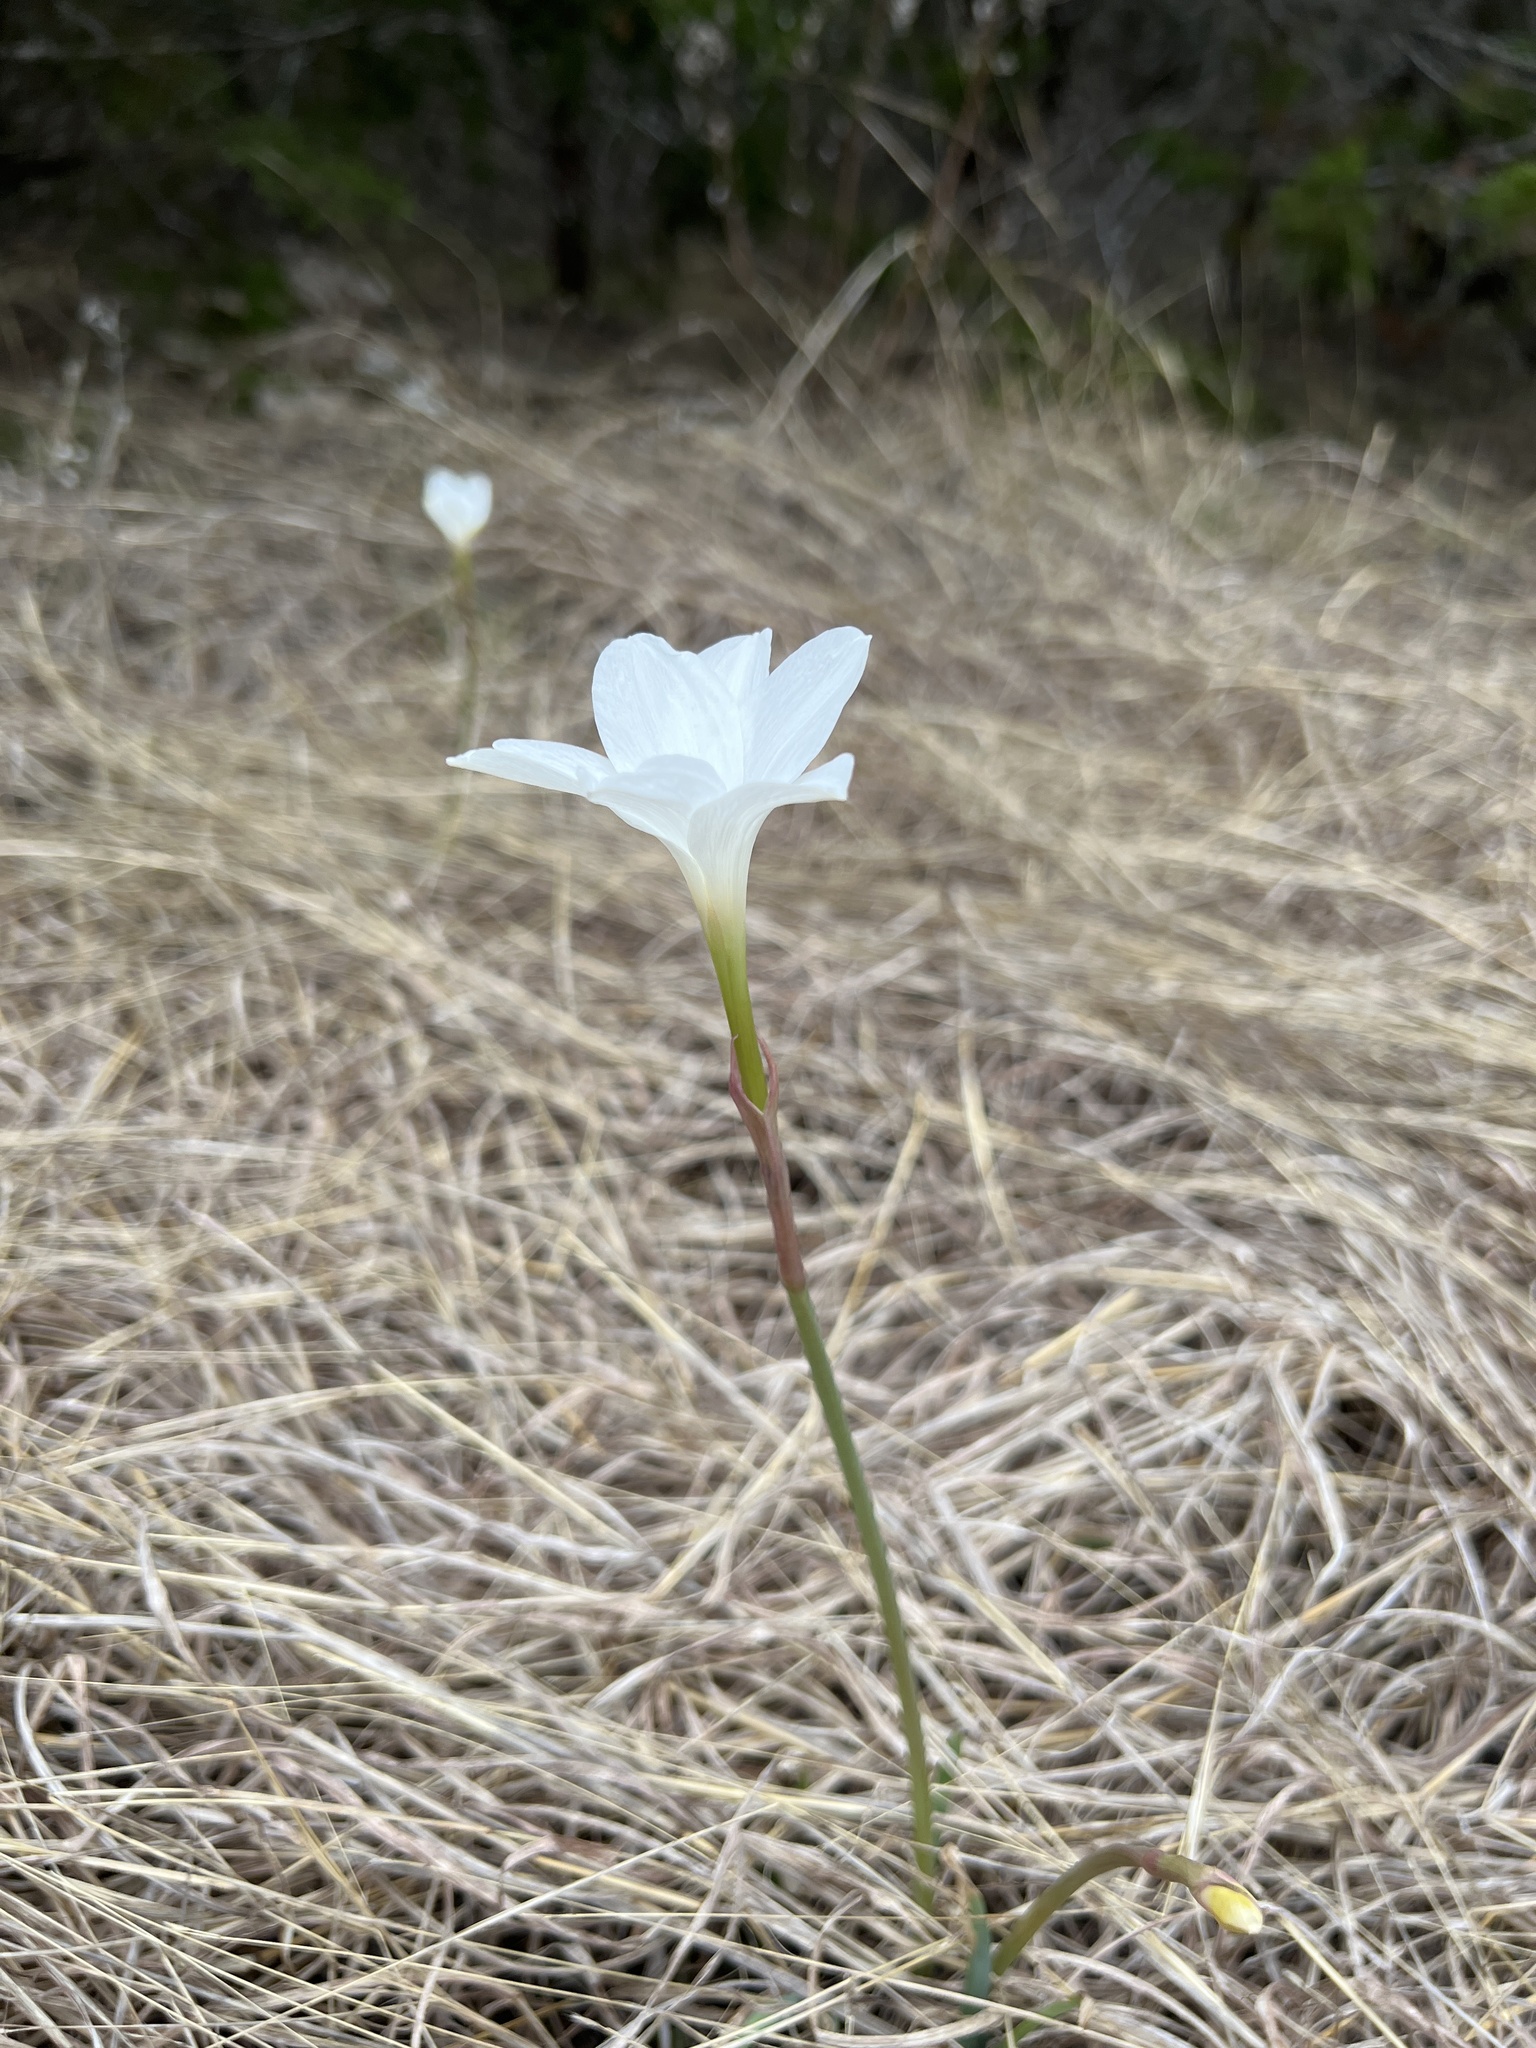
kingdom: Plantae
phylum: Tracheophyta
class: Liliopsida
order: Asparagales
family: Amaryllidaceae
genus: Zephyranthes
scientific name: Zephyranthes drummondii
